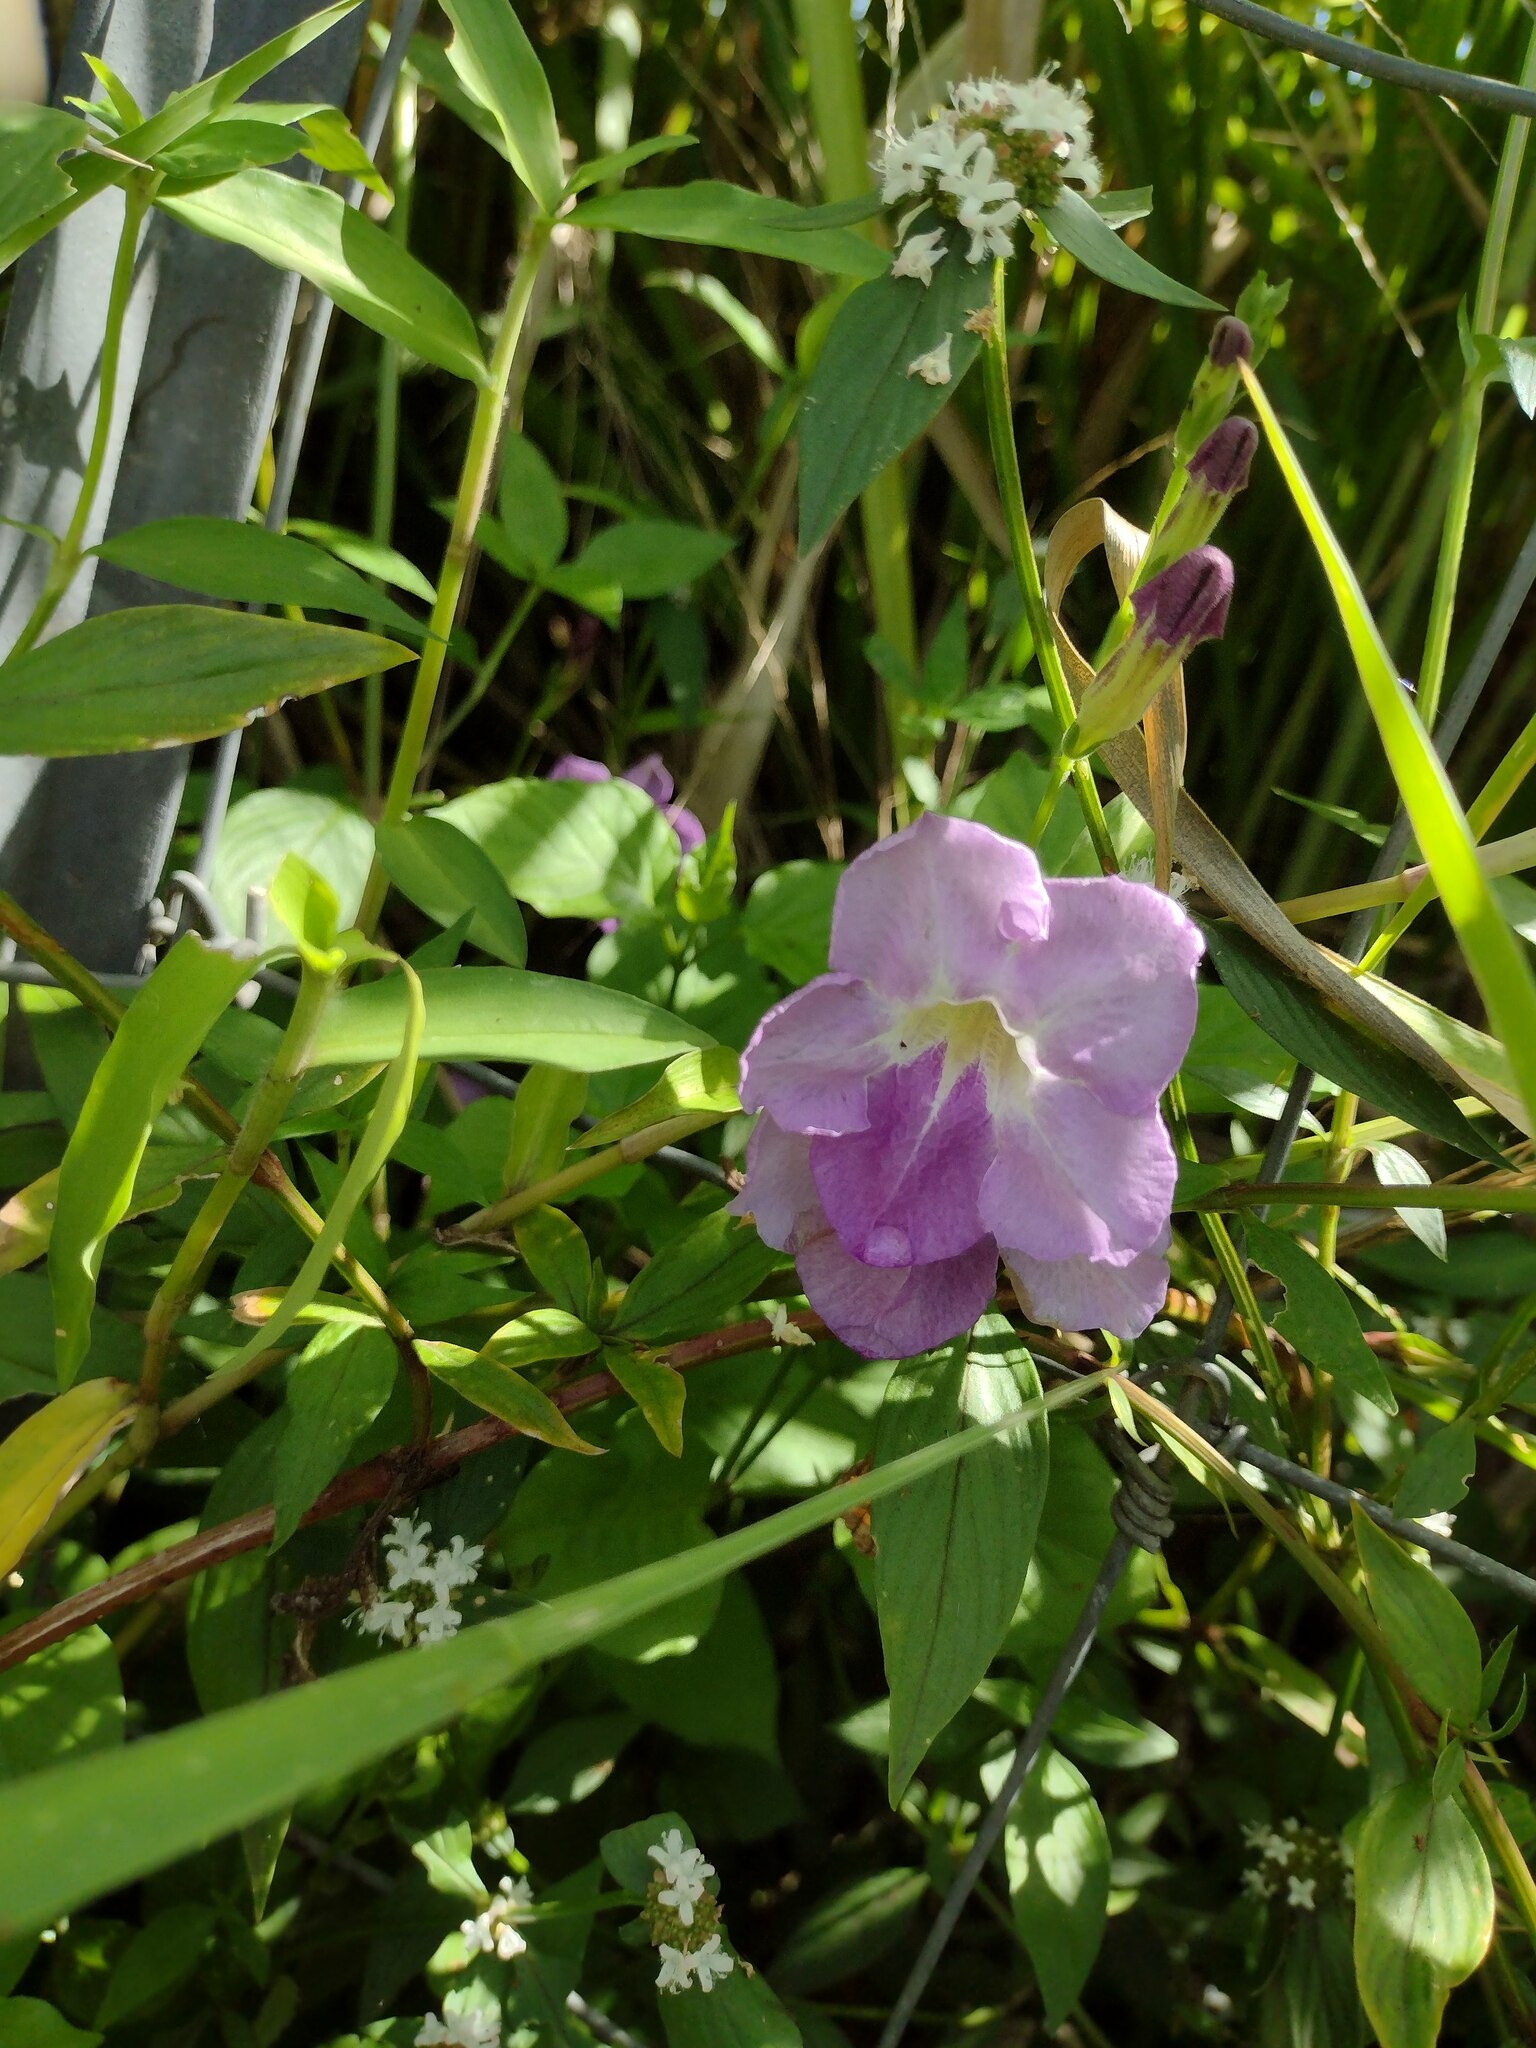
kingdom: Plantae
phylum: Tracheophyta
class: Magnoliopsida
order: Lamiales
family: Acanthaceae
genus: Asystasia
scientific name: Asystasia gangetica
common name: Chinese violet
